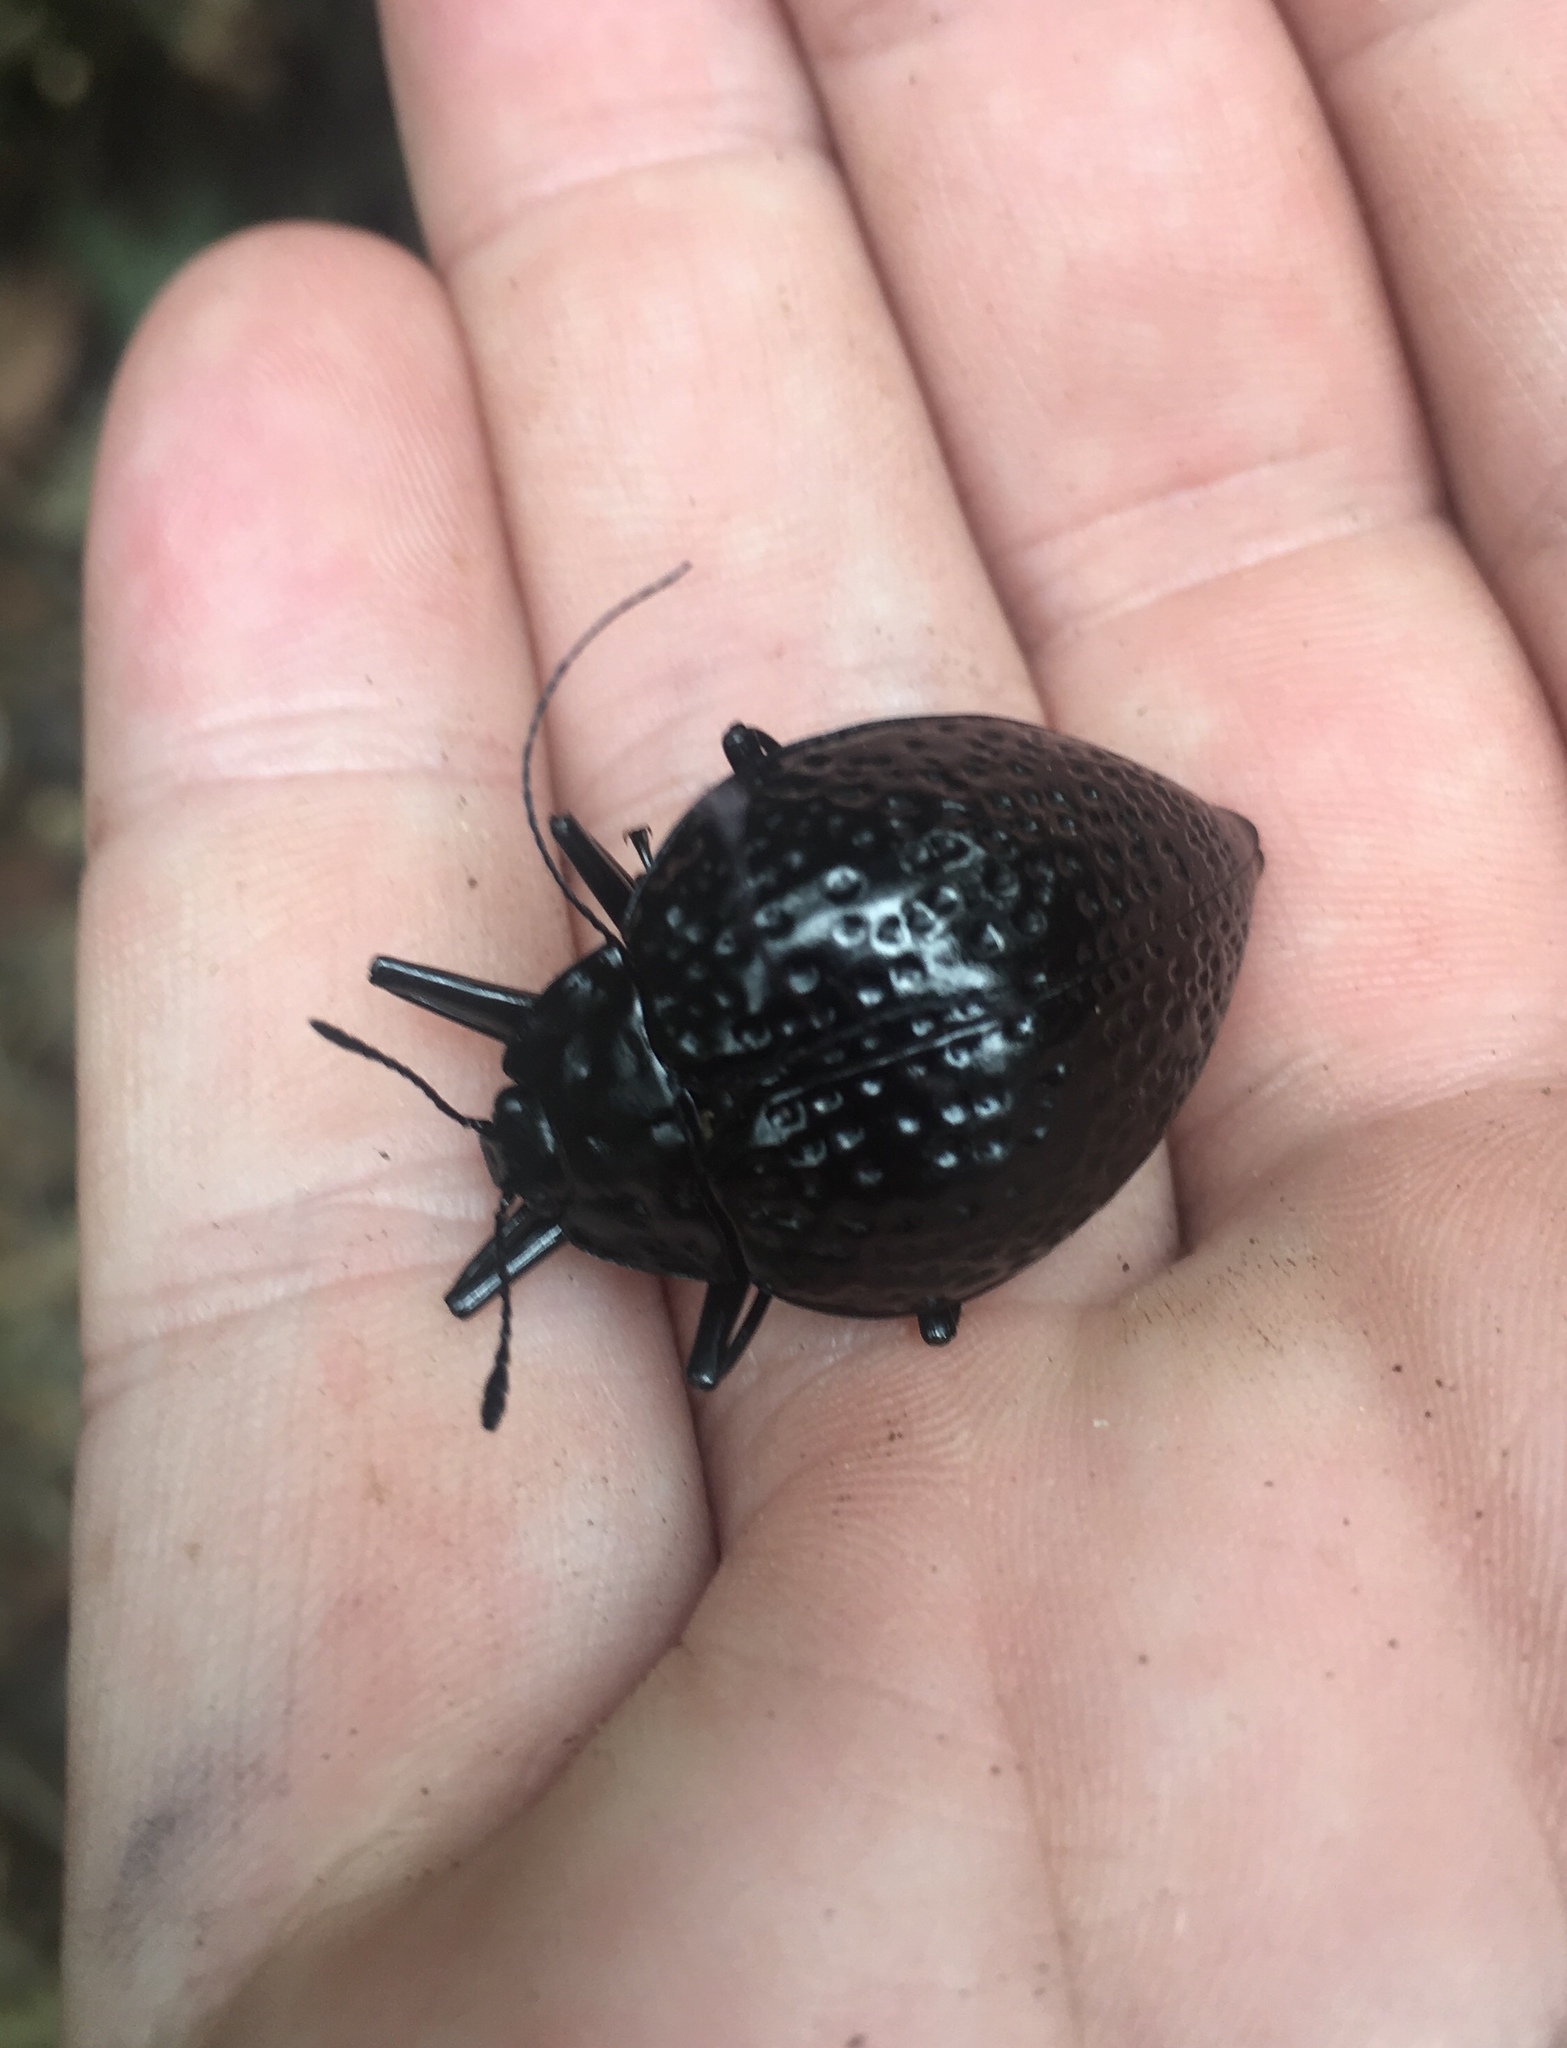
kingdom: Animalia
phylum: Arthropoda
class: Insecta
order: Coleoptera
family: Erotylidae
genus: Erotylus
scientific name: Erotylus
